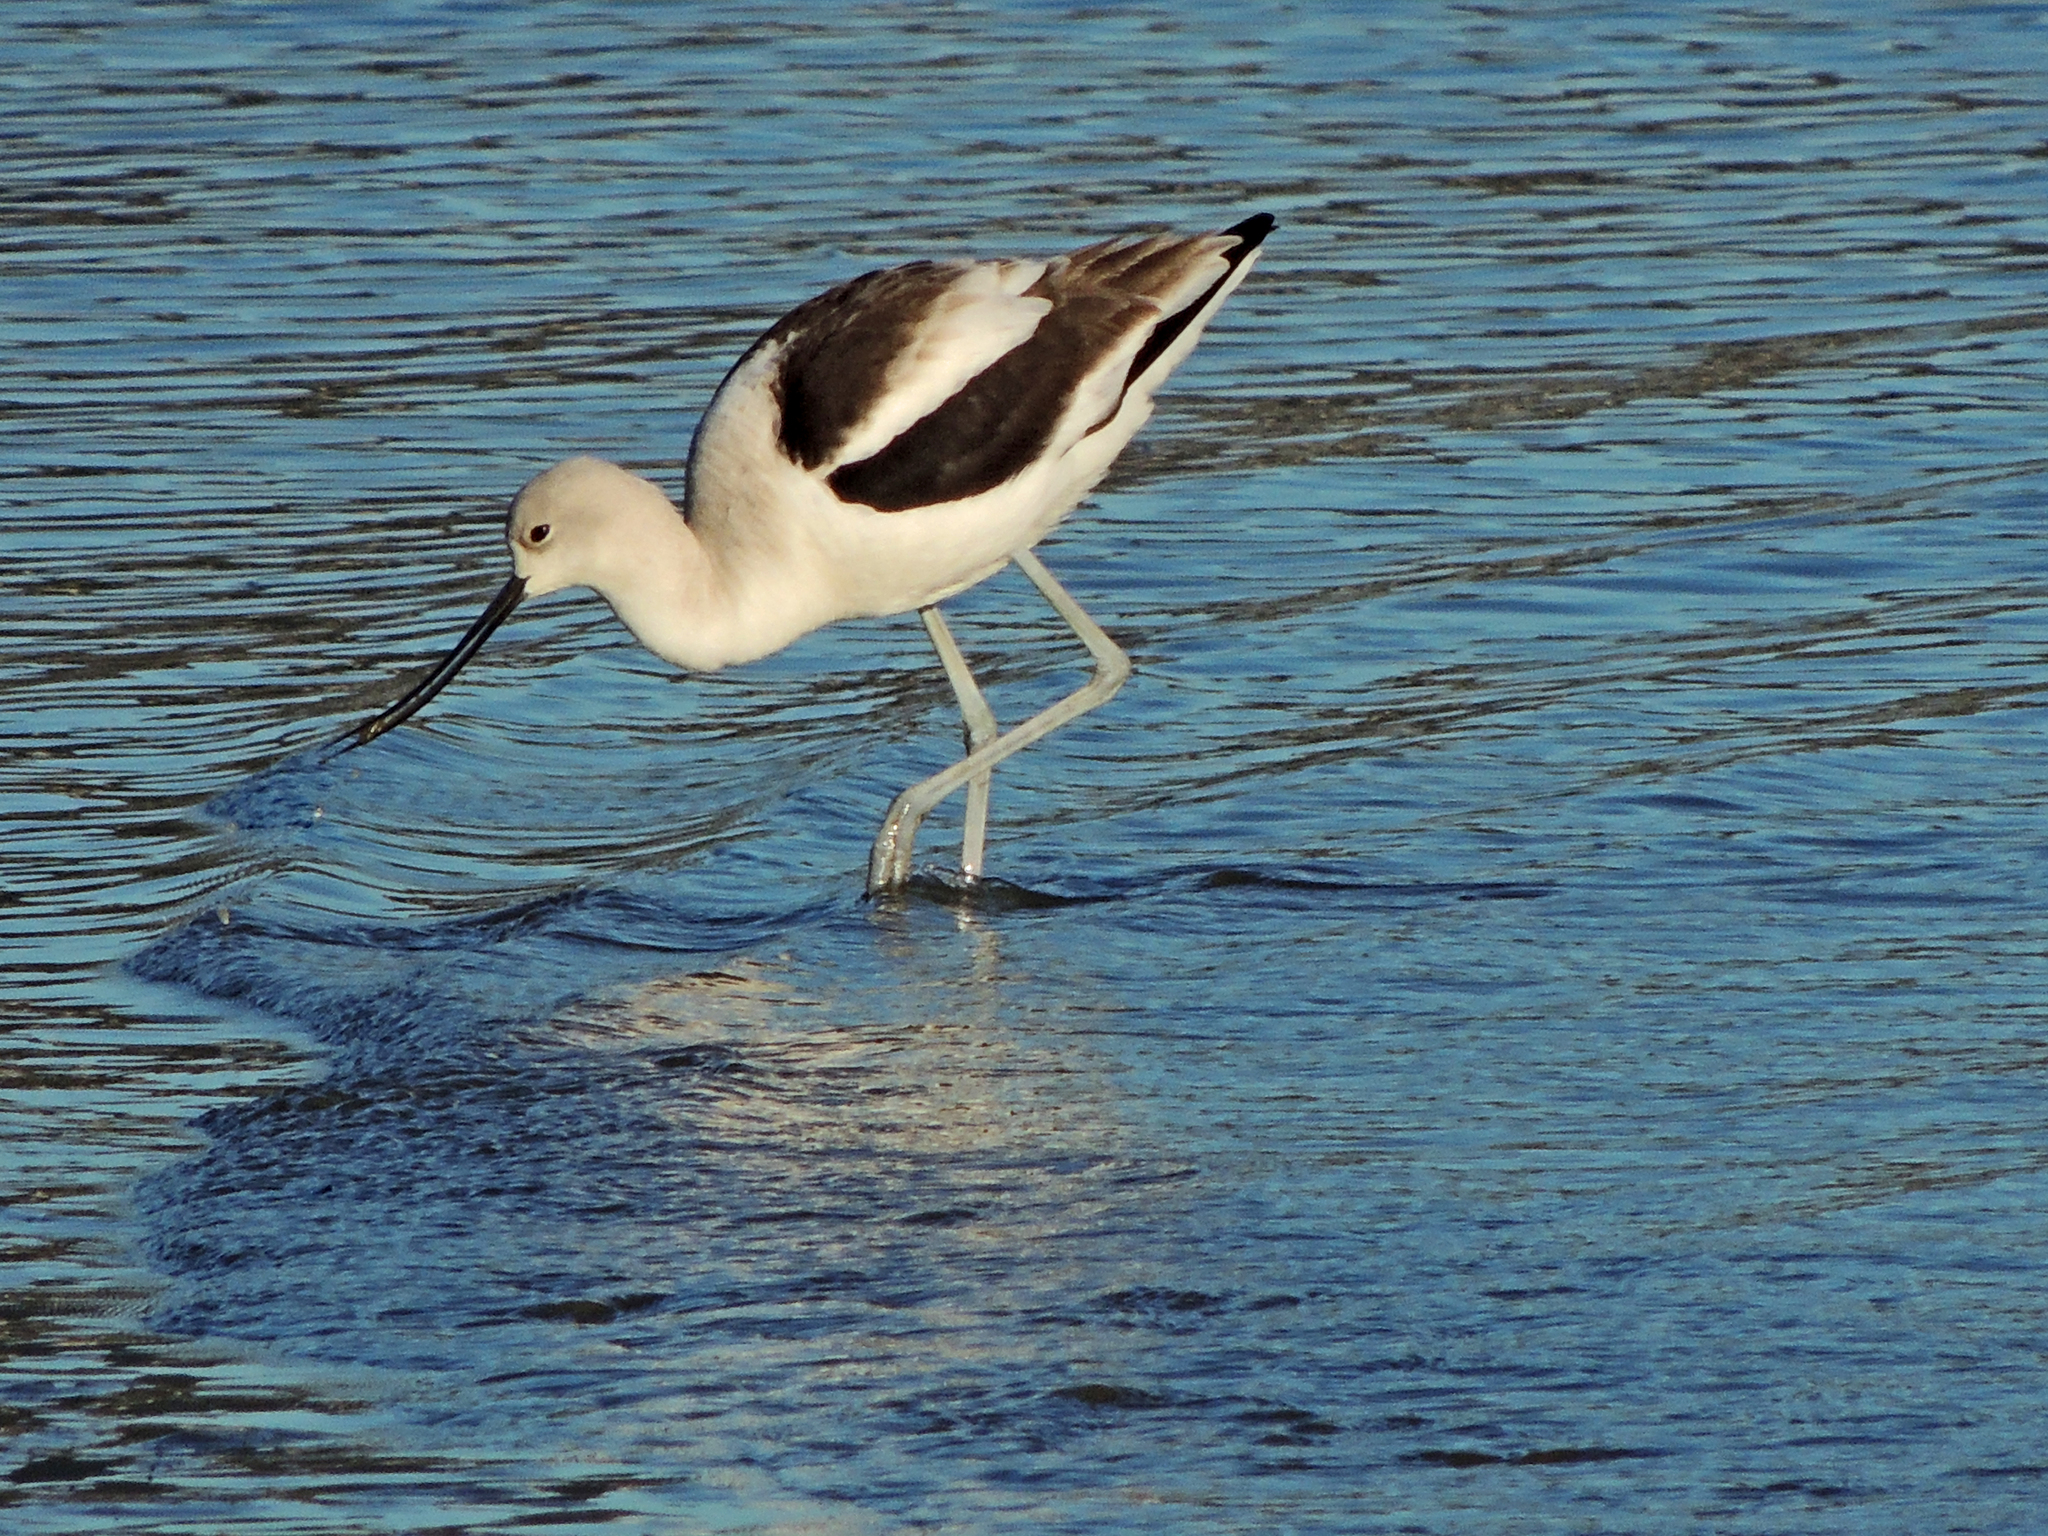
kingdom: Animalia
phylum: Chordata
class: Aves
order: Charadriiformes
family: Recurvirostridae
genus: Recurvirostra
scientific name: Recurvirostra americana
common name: American avocet
